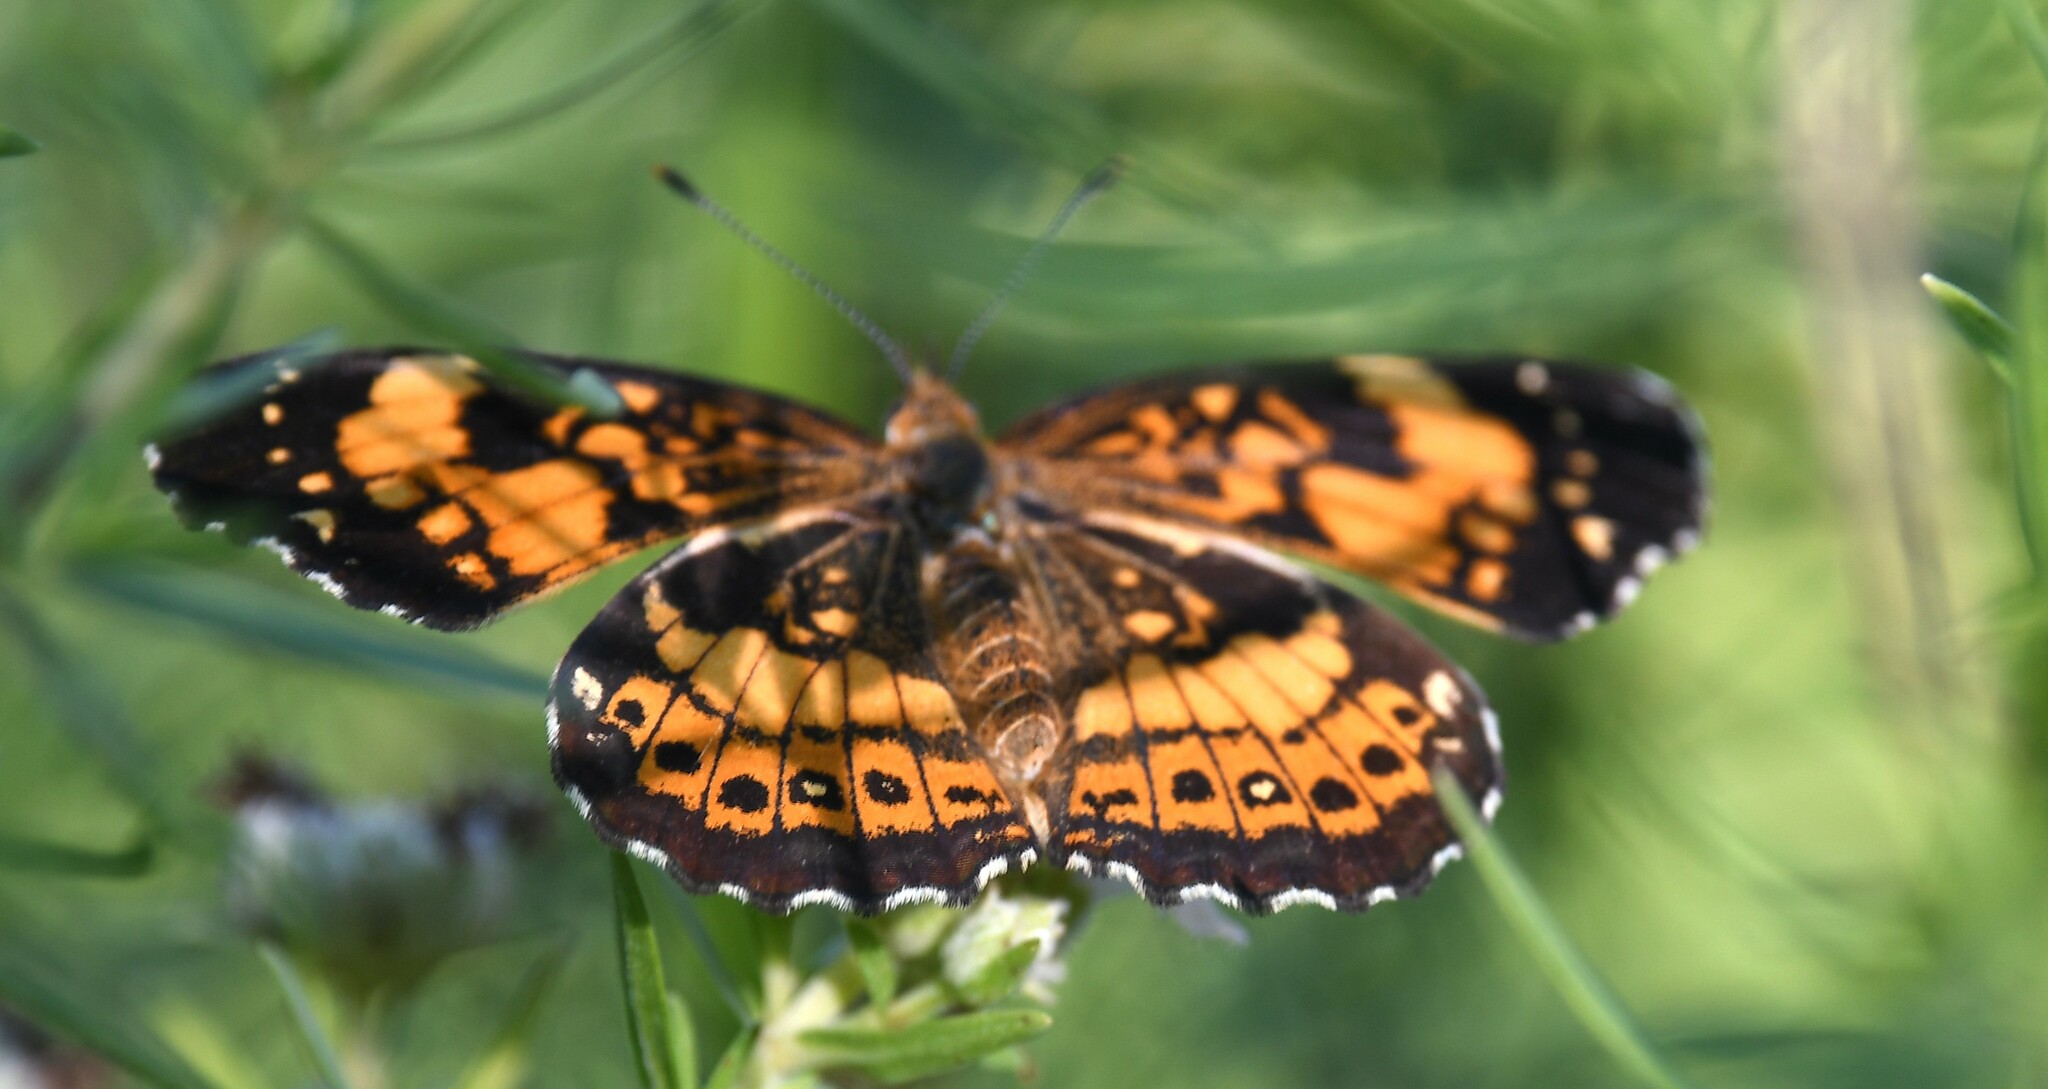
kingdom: Animalia
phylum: Arthropoda
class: Insecta
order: Lepidoptera
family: Nymphalidae
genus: Chlosyne
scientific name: Chlosyne nycteis
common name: Silvery checkerspot
